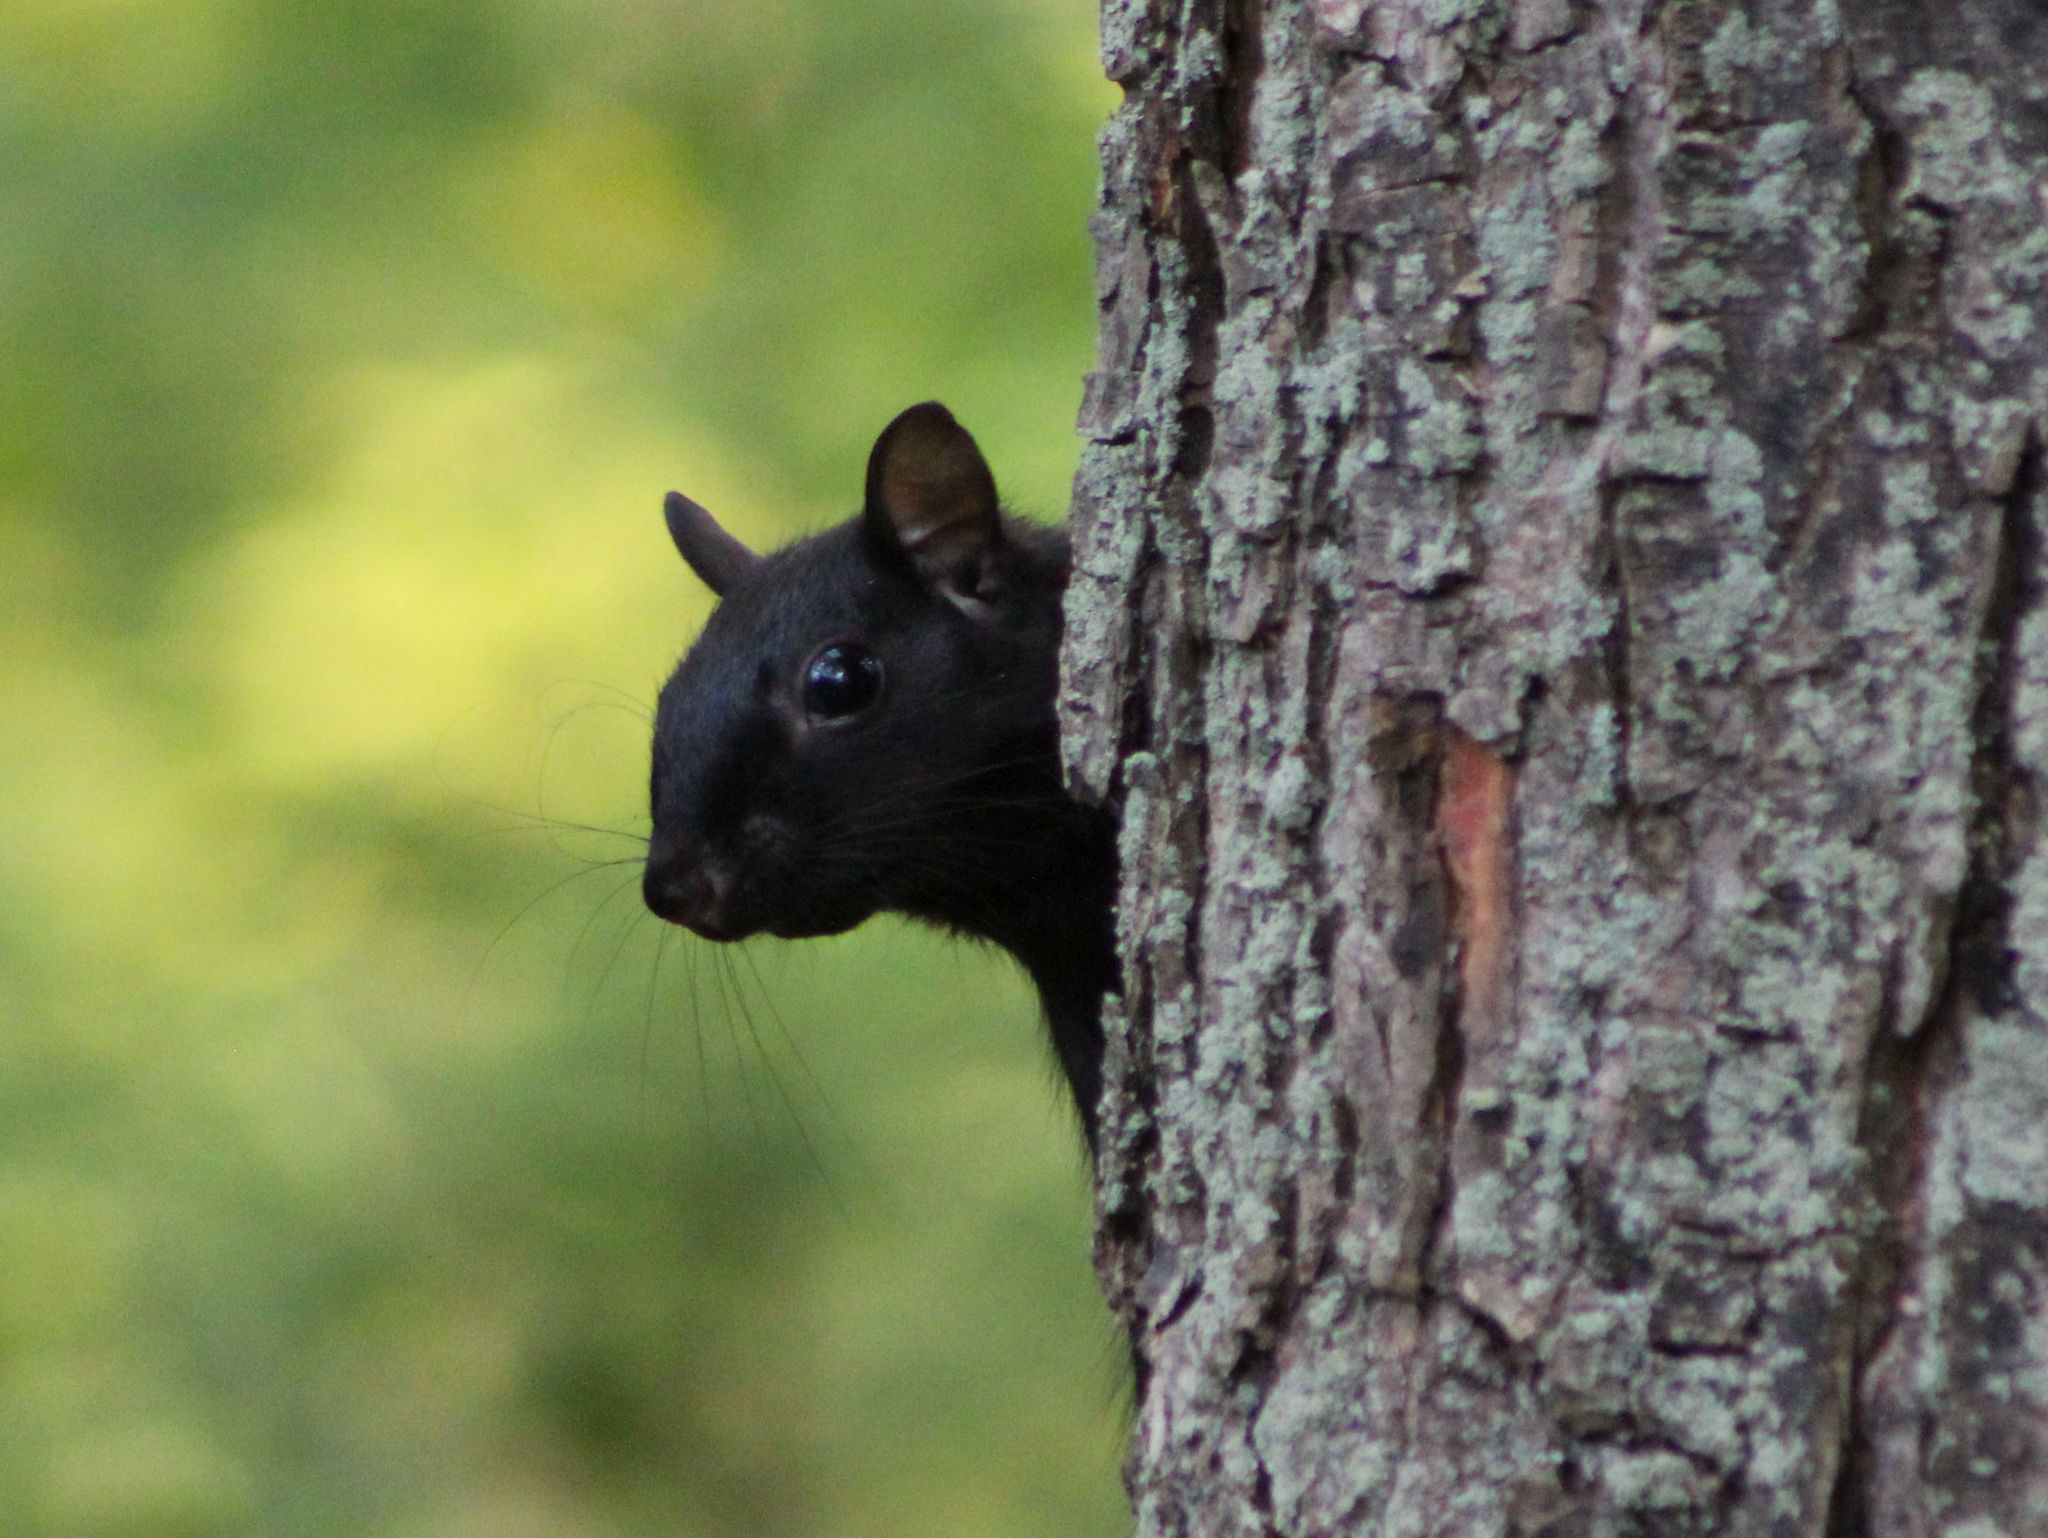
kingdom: Animalia
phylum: Chordata
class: Mammalia
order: Rodentia
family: Sciuridae
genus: Sciurus
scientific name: Sciurus carolinensis
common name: Eastern gray squirrel
